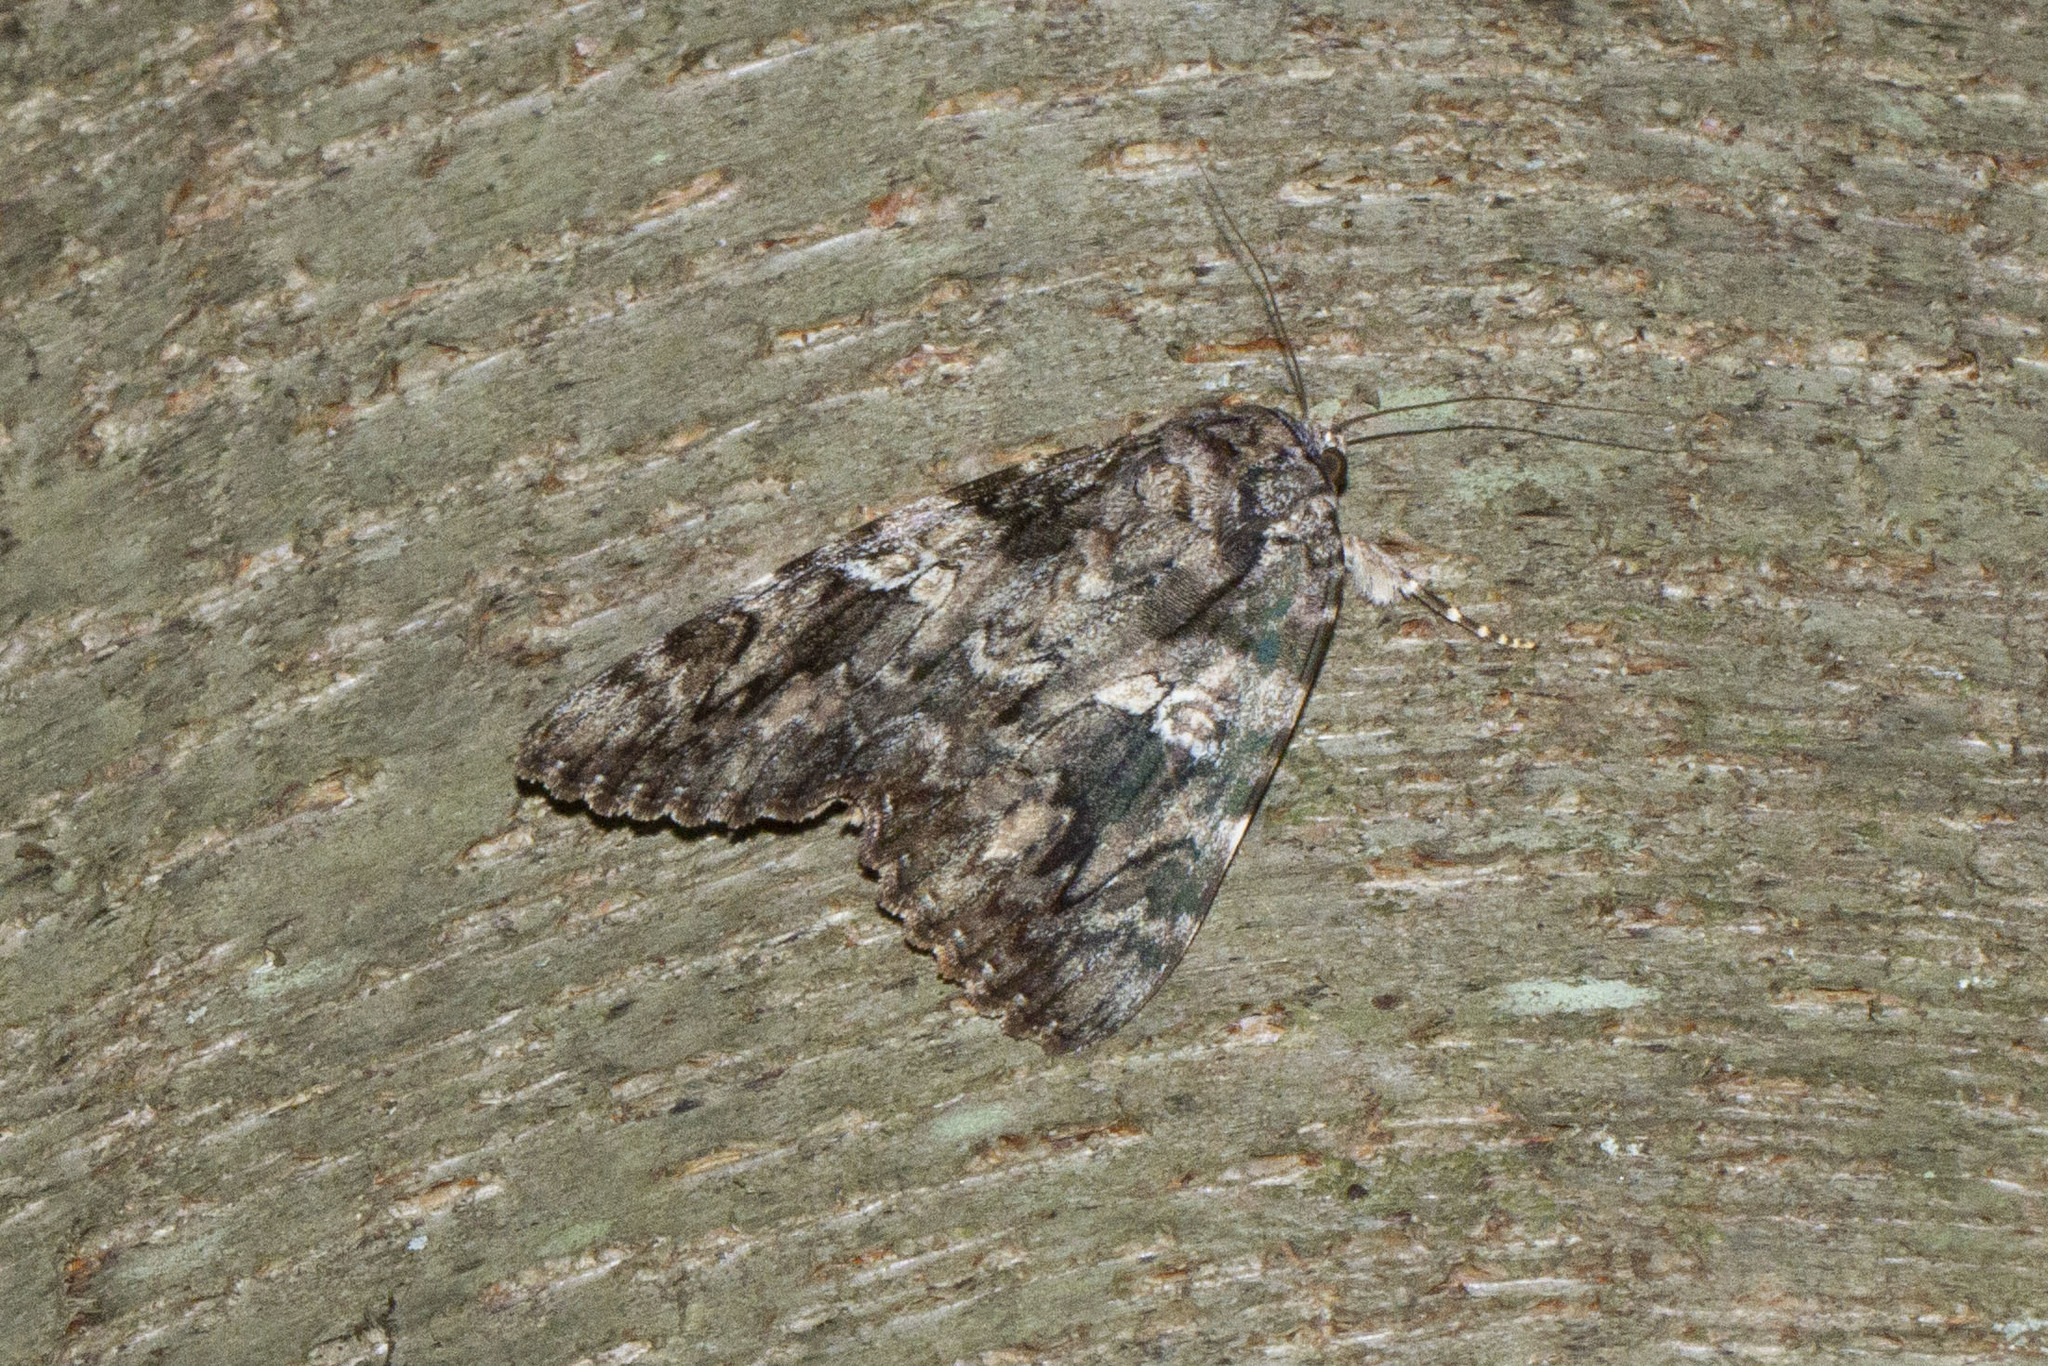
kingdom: Animalia
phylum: Arthropoda
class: Insecta
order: Lepidoptera
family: Erebidae
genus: Catocala
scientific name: Catocala ilia
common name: Ilia underwing
